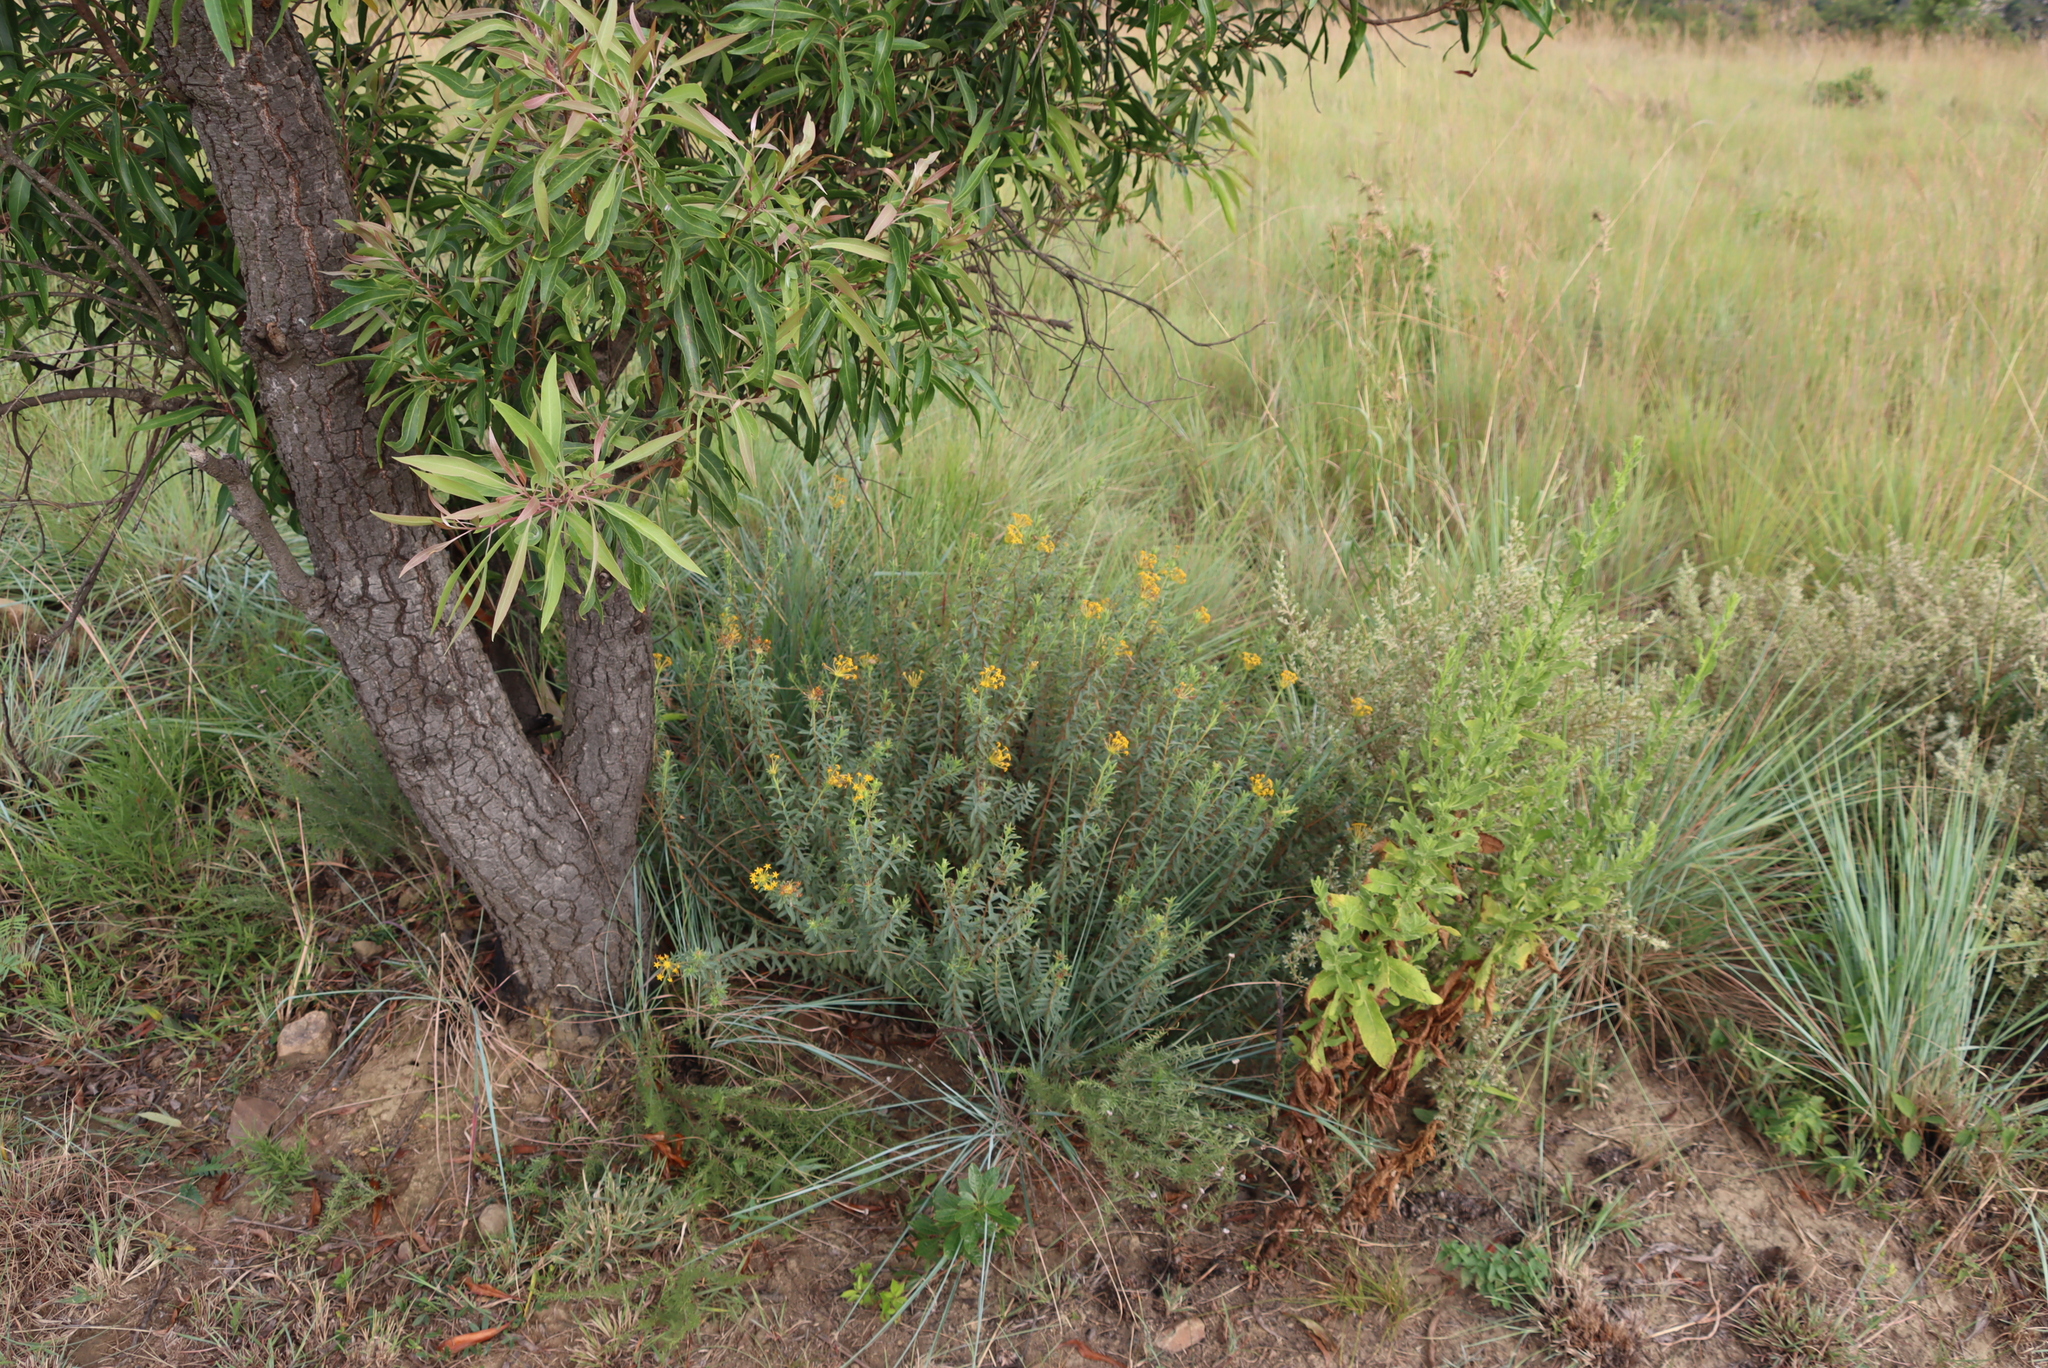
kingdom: Plantae
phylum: Tracheophyta
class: Magnoliopsida
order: Malvales
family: Thymelaeaceae
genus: Gnidia
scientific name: Gnidia capitata
